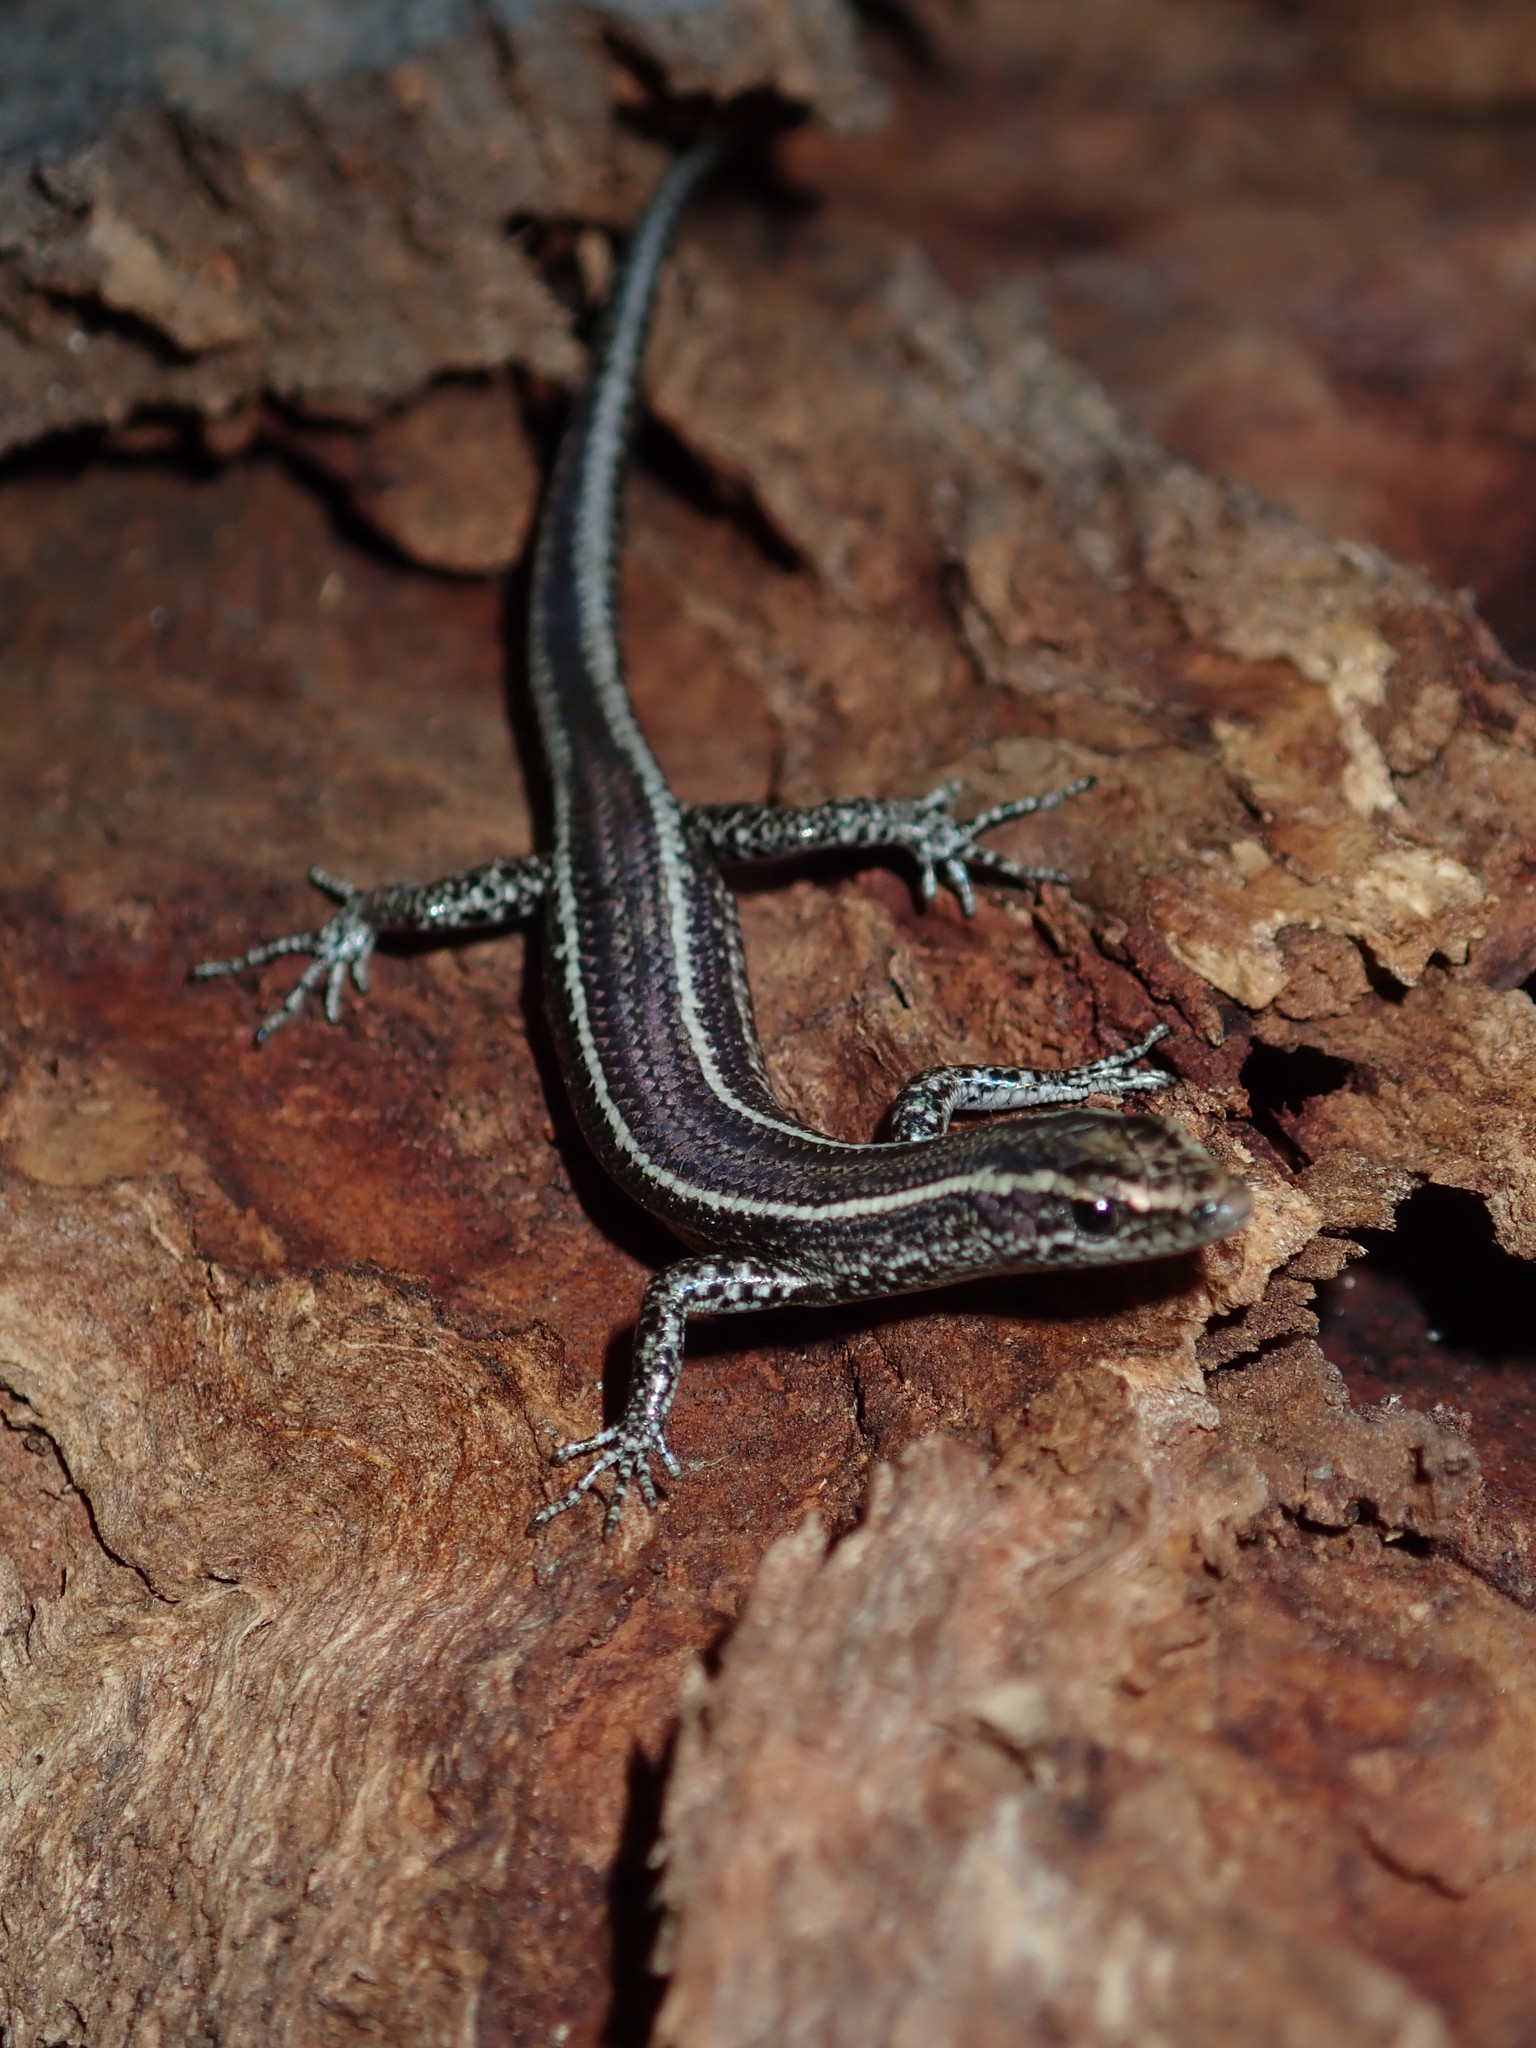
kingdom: Animalia
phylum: Chordata
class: Squamata
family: Scincidae
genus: Cryptoblepharus
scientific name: Cryptoblepharus pulcher
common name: Elegant snake-eyed skink
